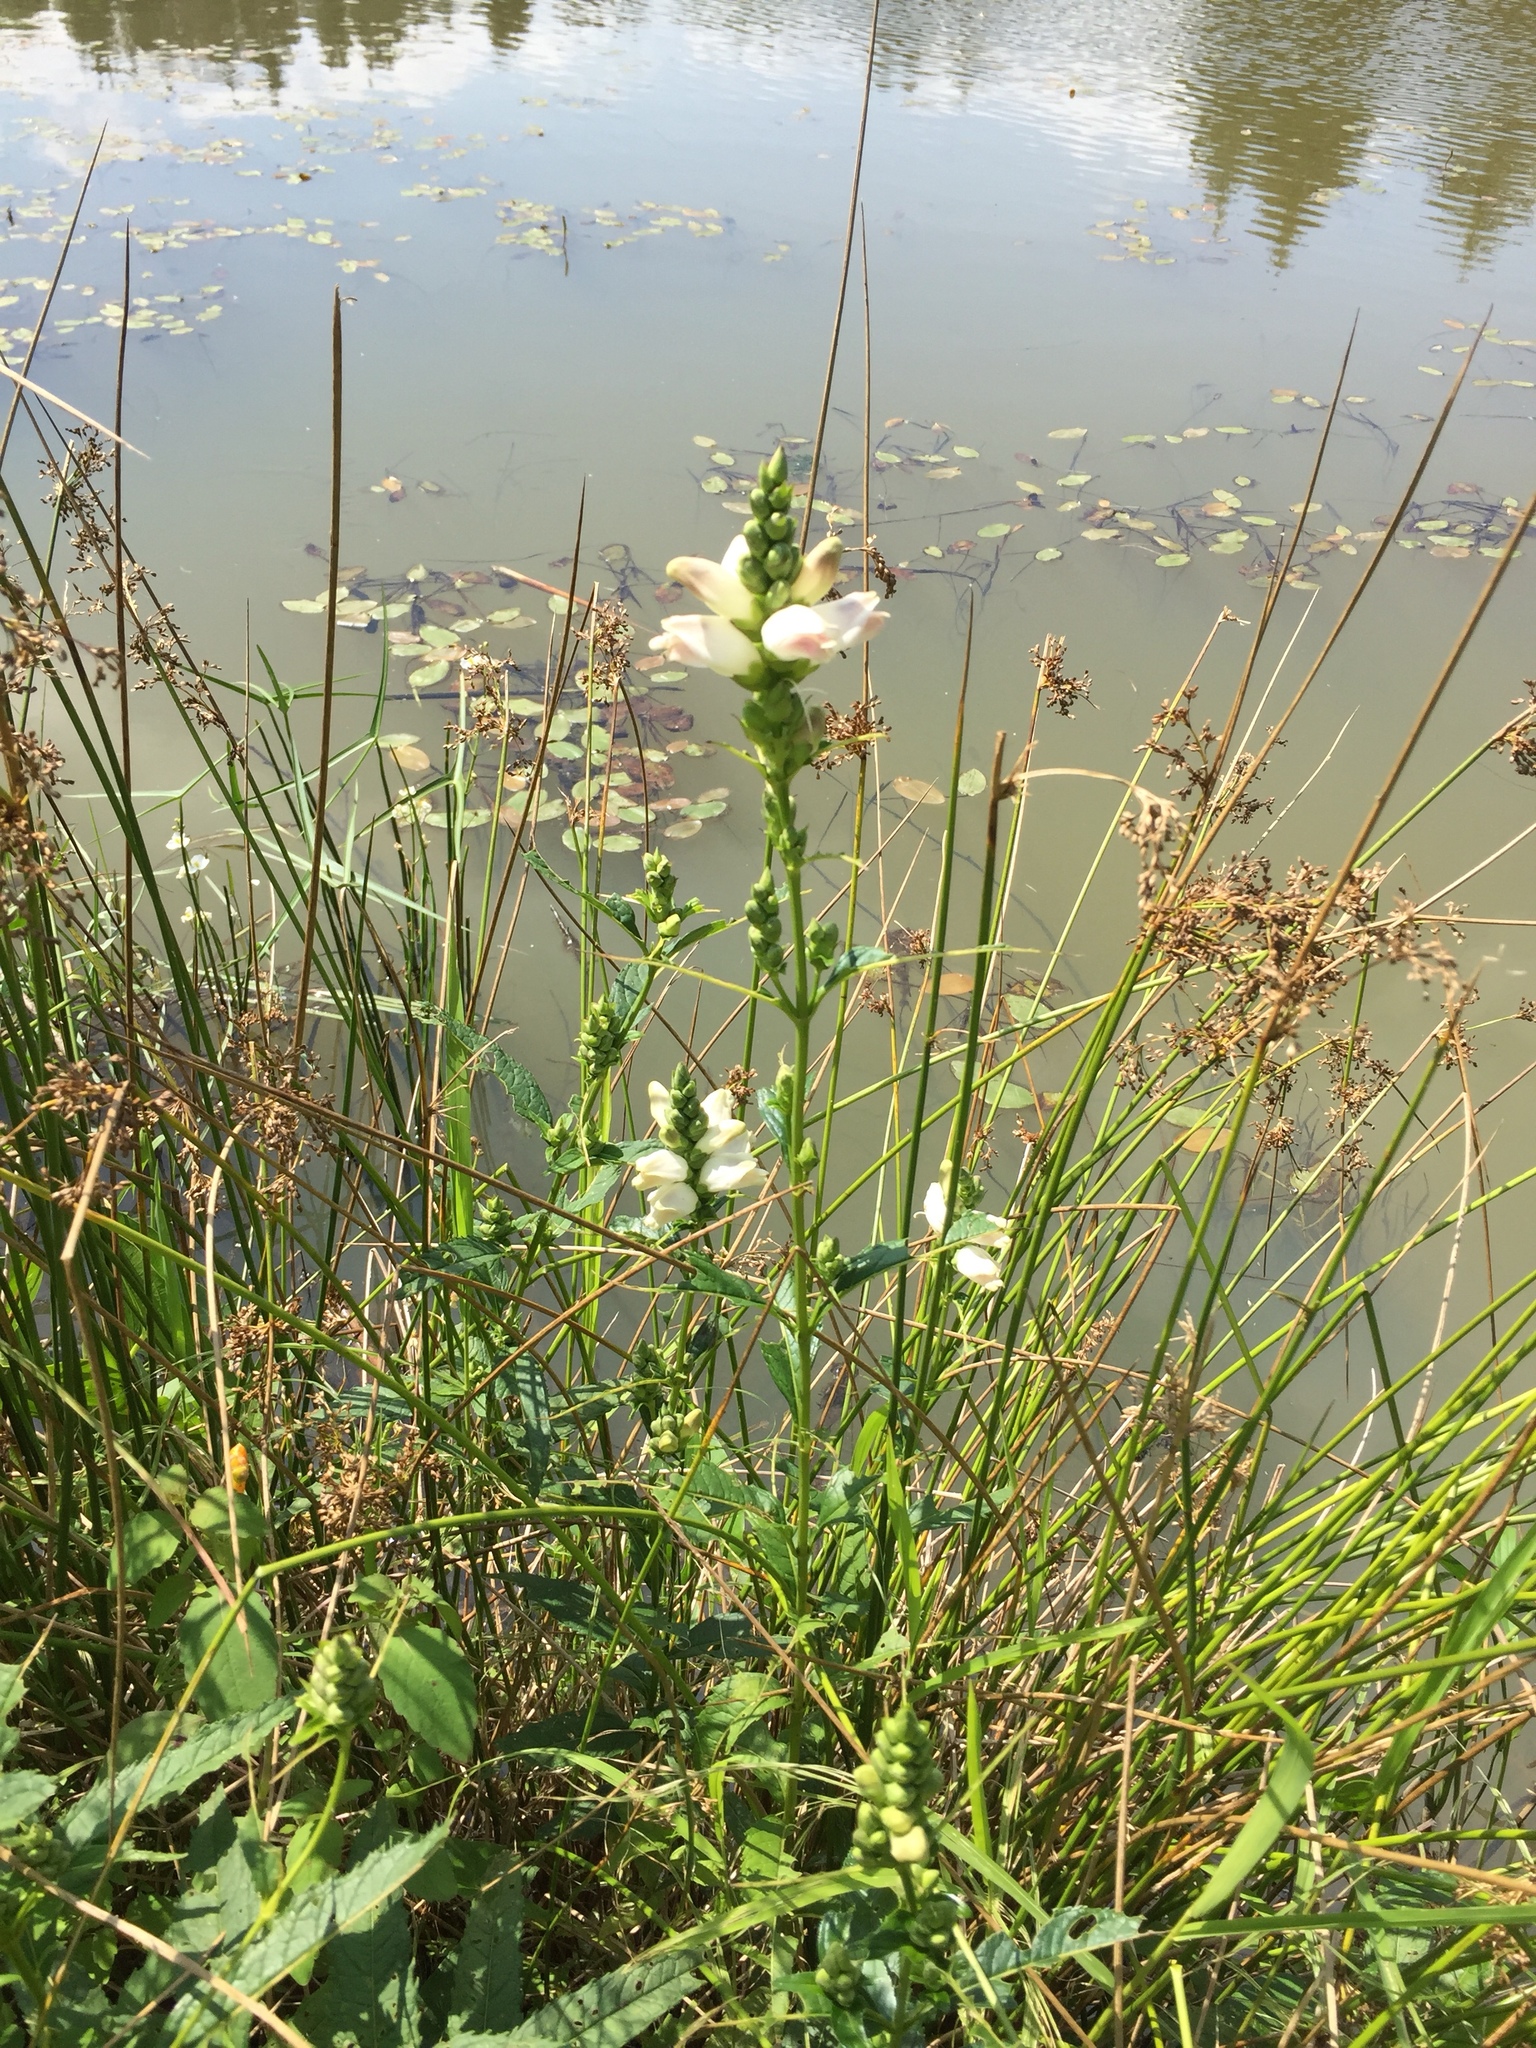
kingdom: Plantae
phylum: Tracheophyta
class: Magnoliopsida
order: Lamiales
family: Plantaginaceae
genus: Chelone
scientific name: Chelone glabra
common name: Snakehead
